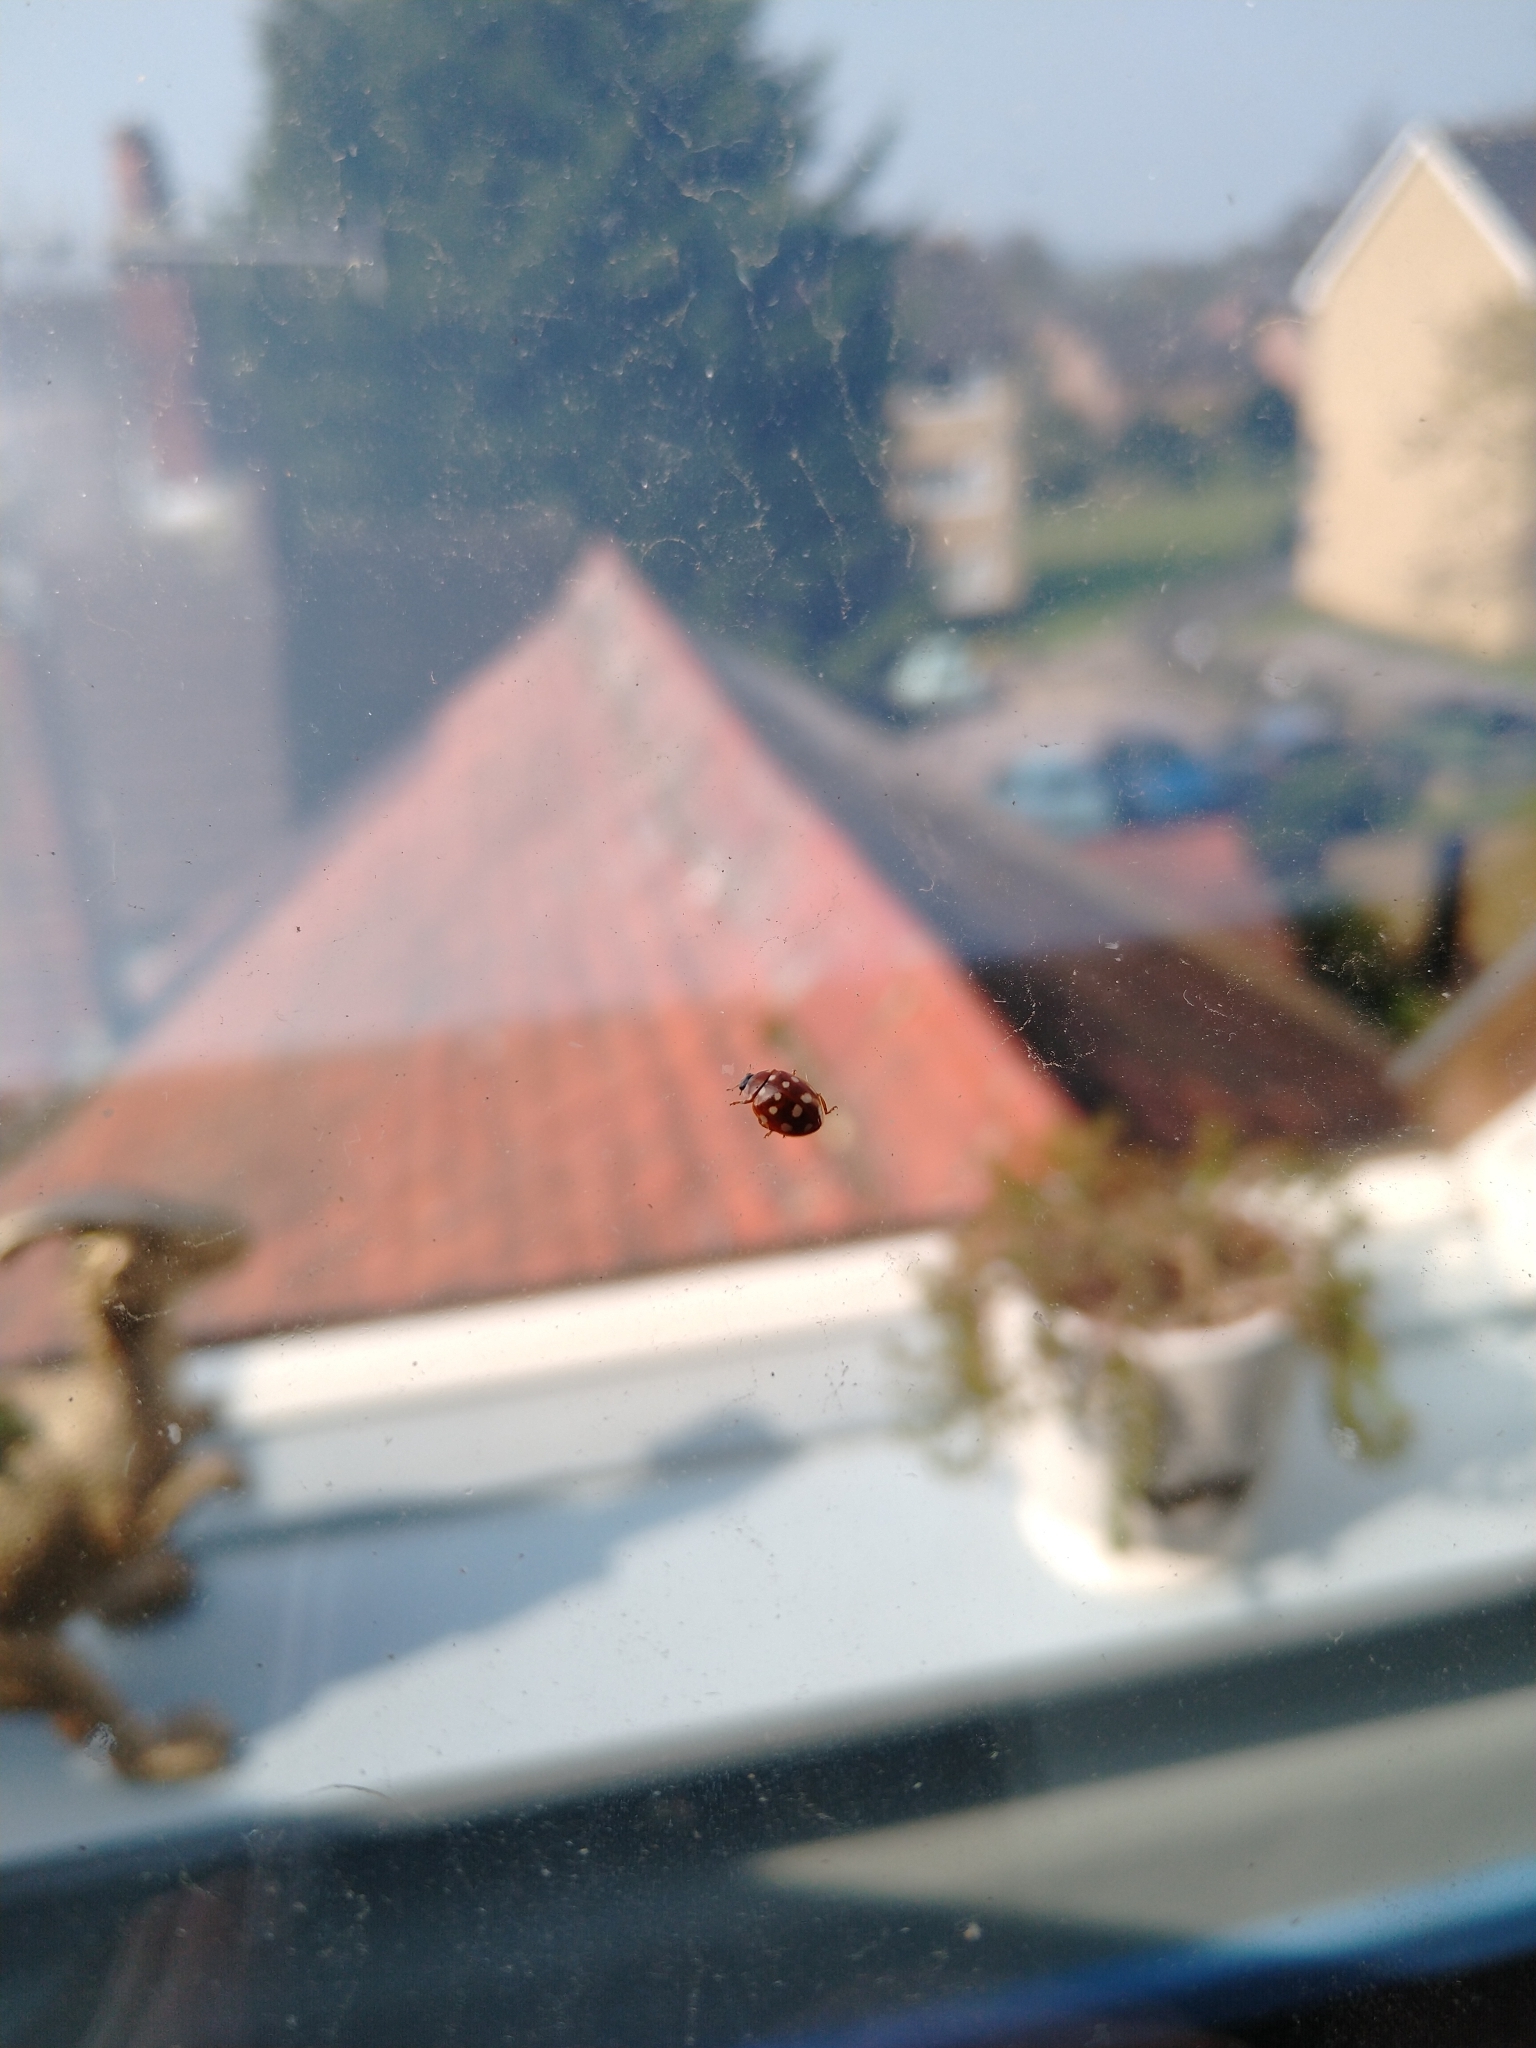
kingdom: Animalia
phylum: Arthropoda
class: Insecta
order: Coleoptera
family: Coccinellidae
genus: Calvia
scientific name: Calvia quatuordecimguttata
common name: Cream-spot ladybird
